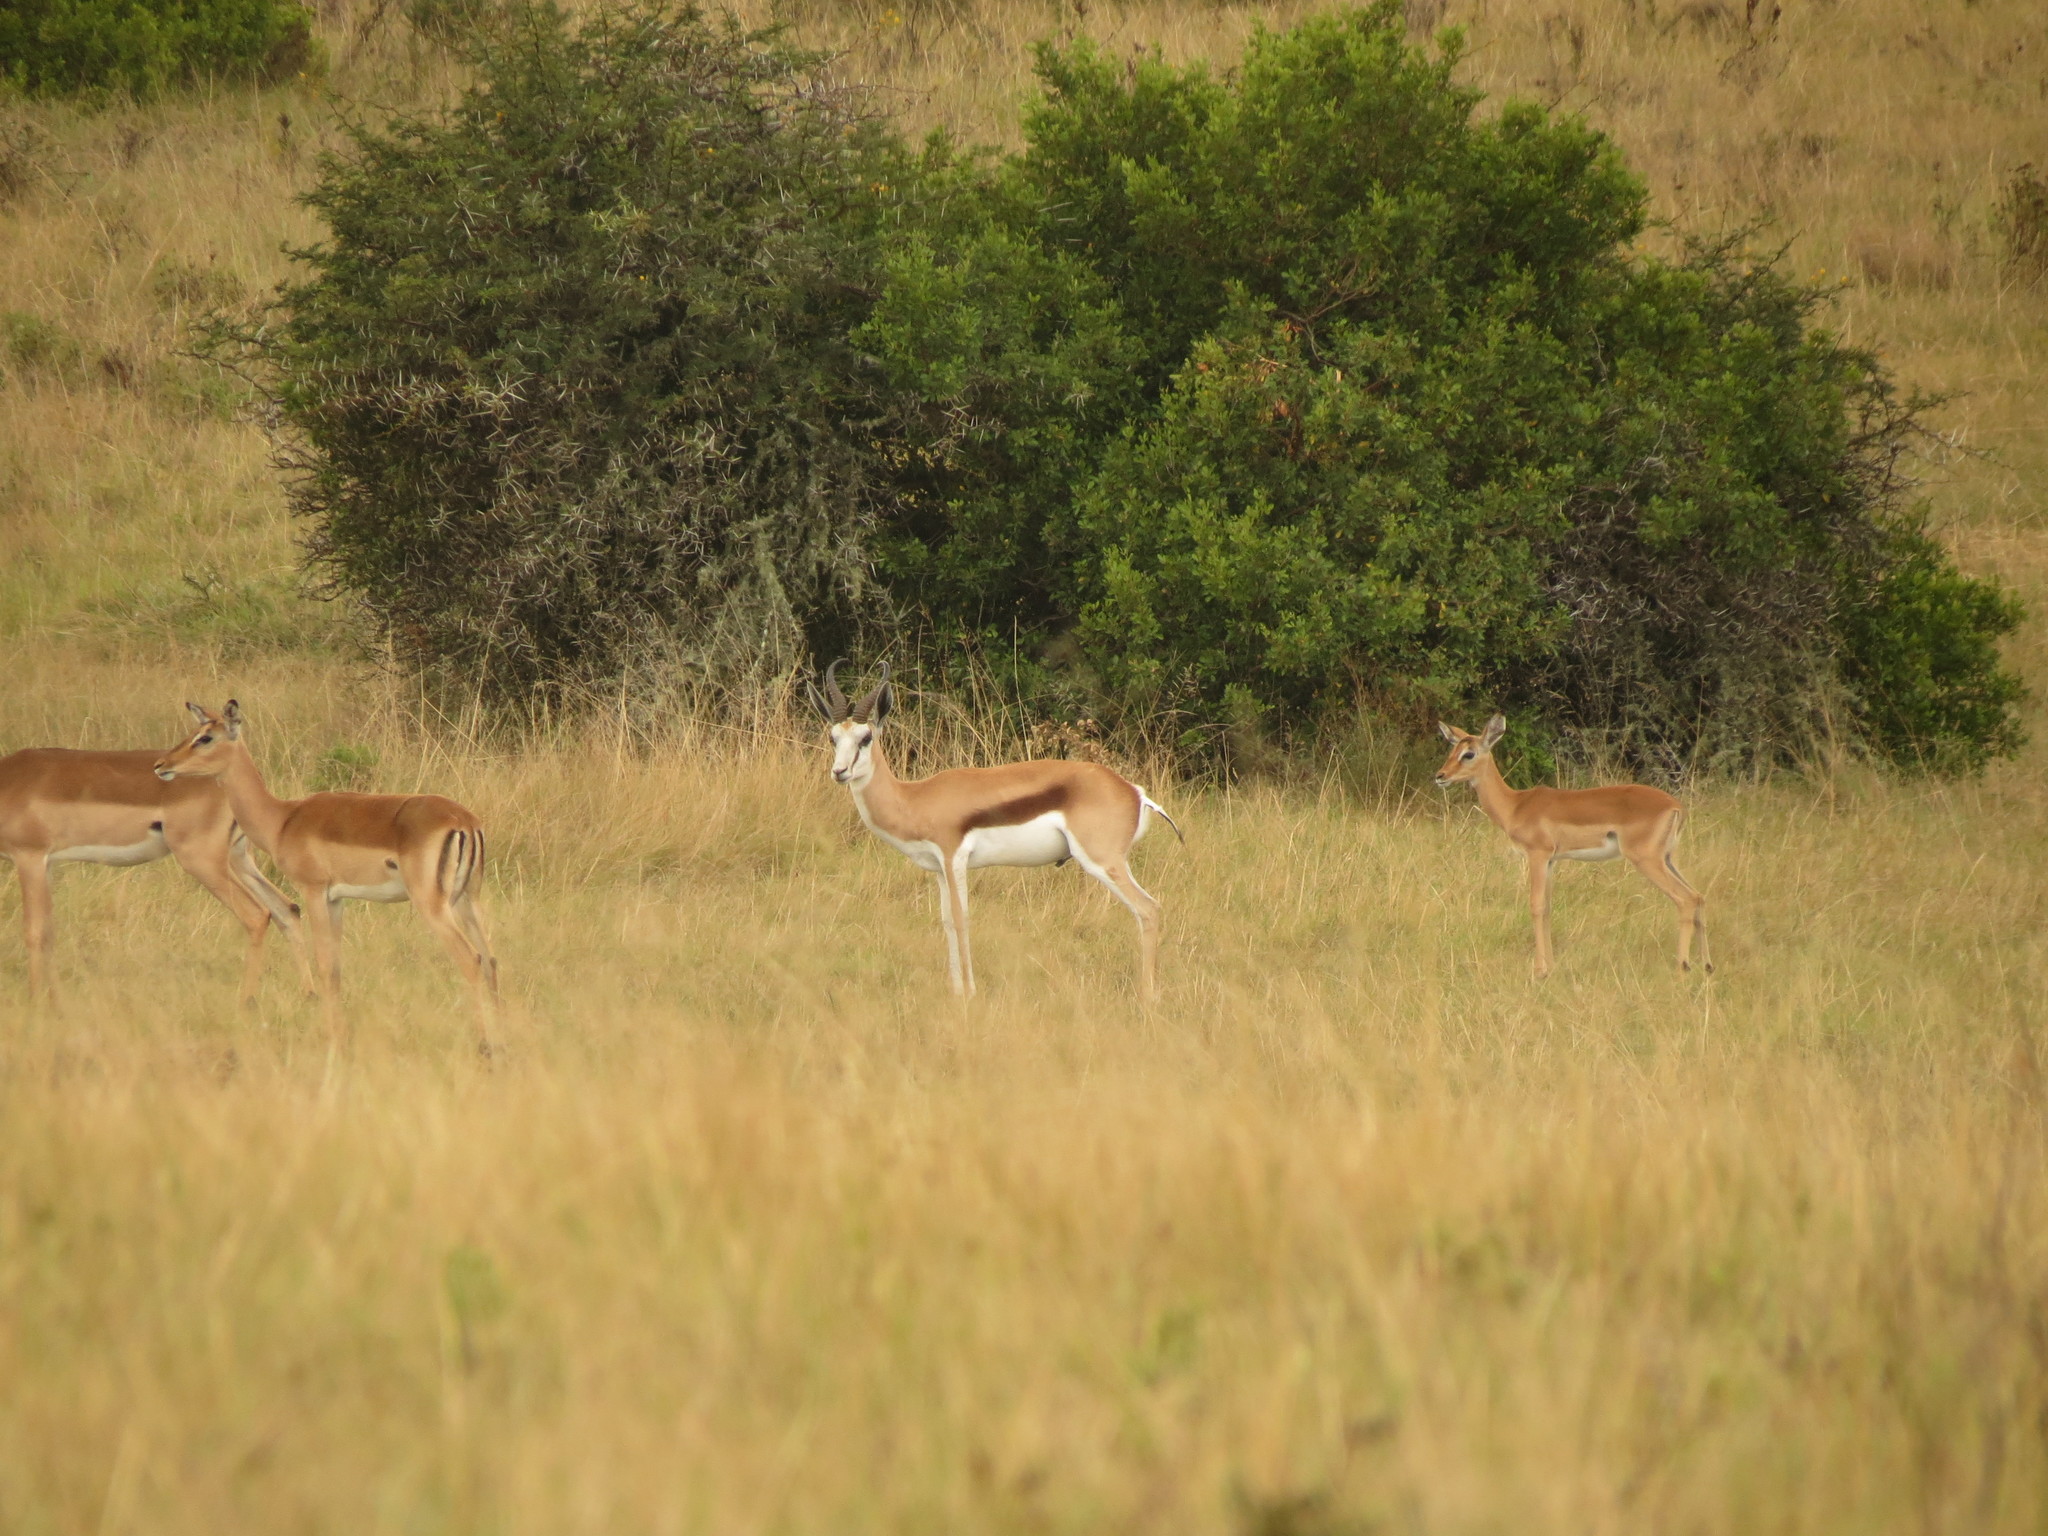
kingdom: Animalia
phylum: Chordata
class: Mammalia
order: Artiodactyla
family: Bovidae
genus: Antidorcas
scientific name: Antidorcas marsupialis
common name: Springbok
